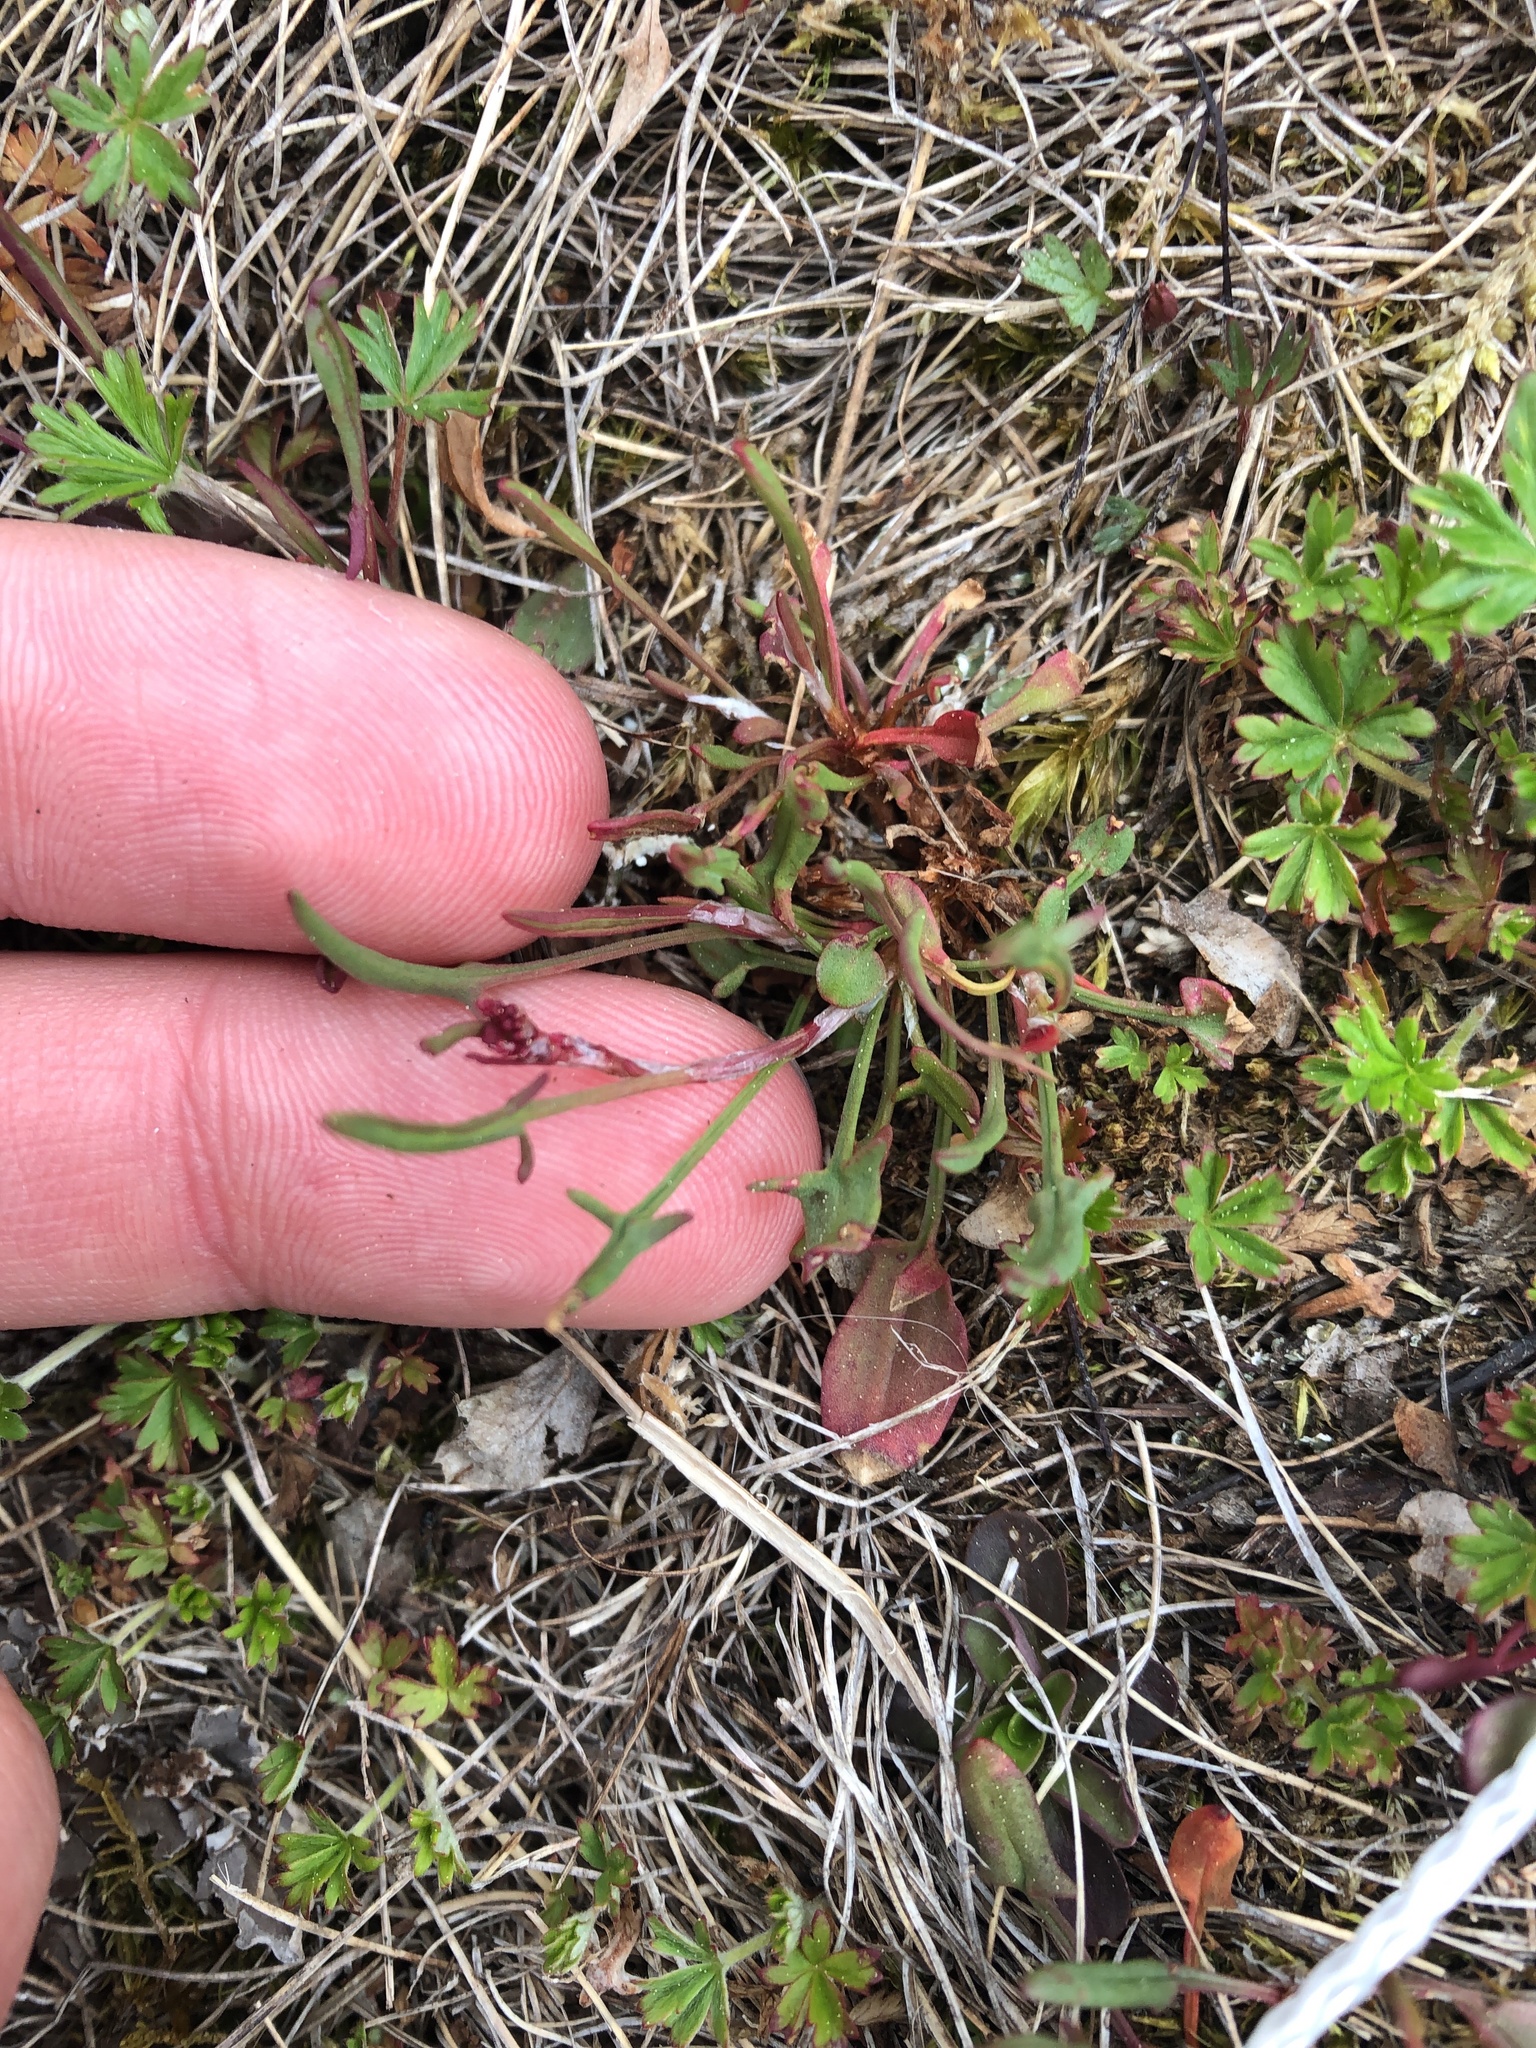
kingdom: Plantae
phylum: Tracheophyta
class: Magnoliopsida
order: Caryophyllales
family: Polygonaceae
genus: Rumex
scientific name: Rumex acetosella
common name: Common sheep sorrel
